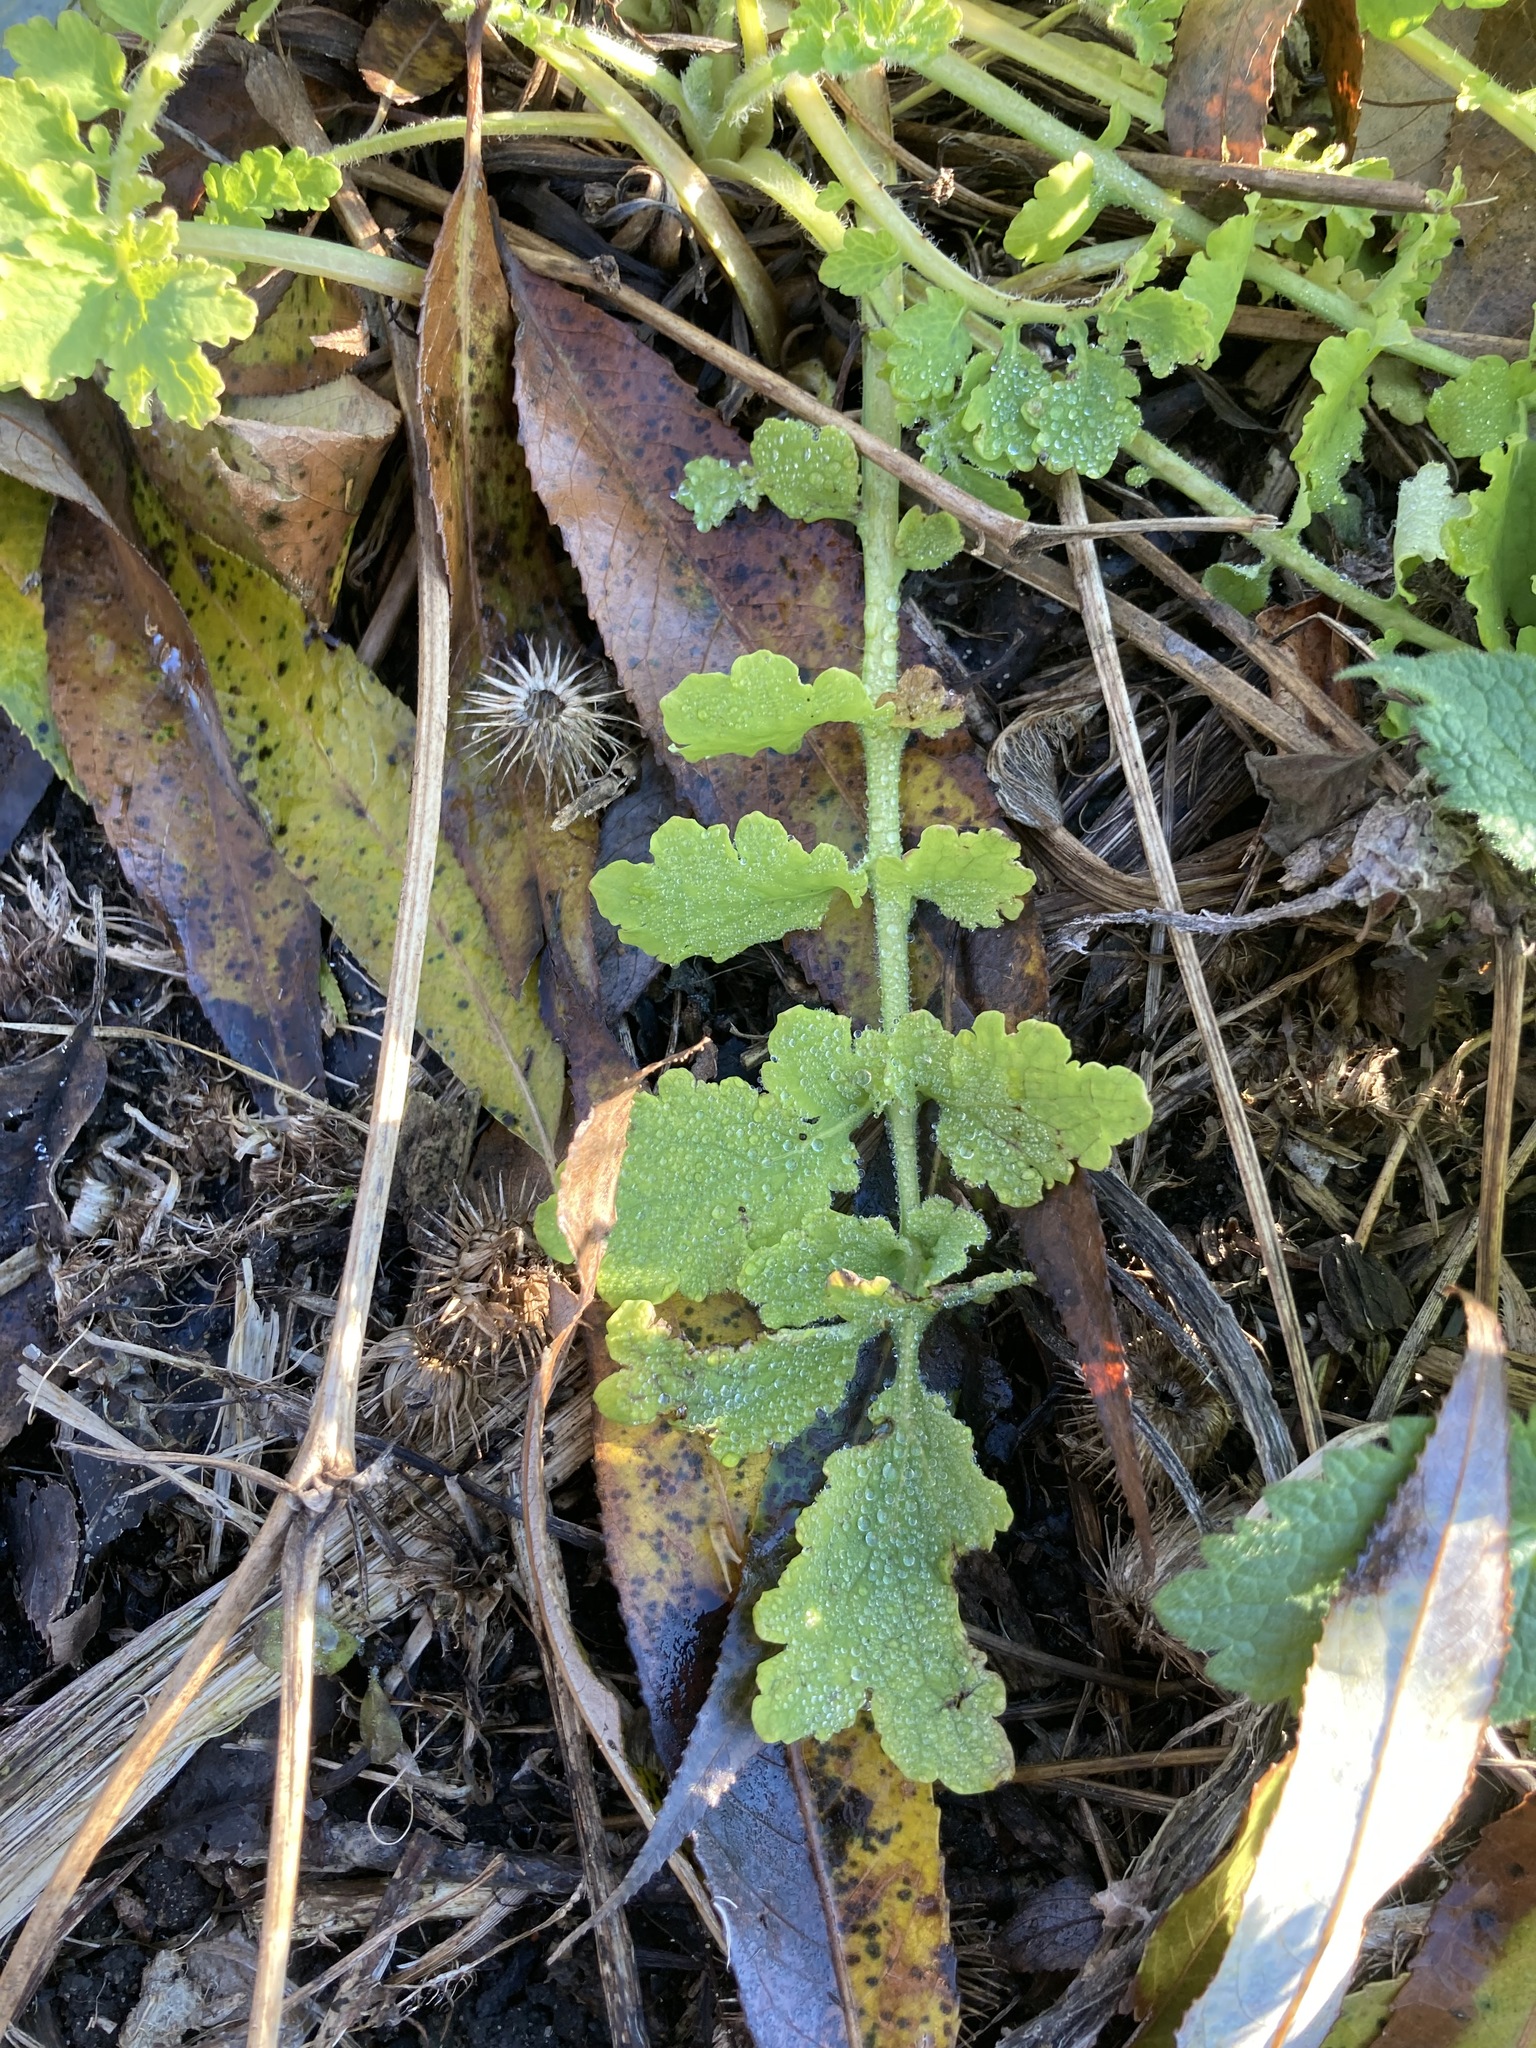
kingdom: Plantae
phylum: Tracheophyta
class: Magnoliopsida
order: Ranunculales
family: Papaveraceae
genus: Chelidonium
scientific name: Chelidonium majus
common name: Greater celandine
